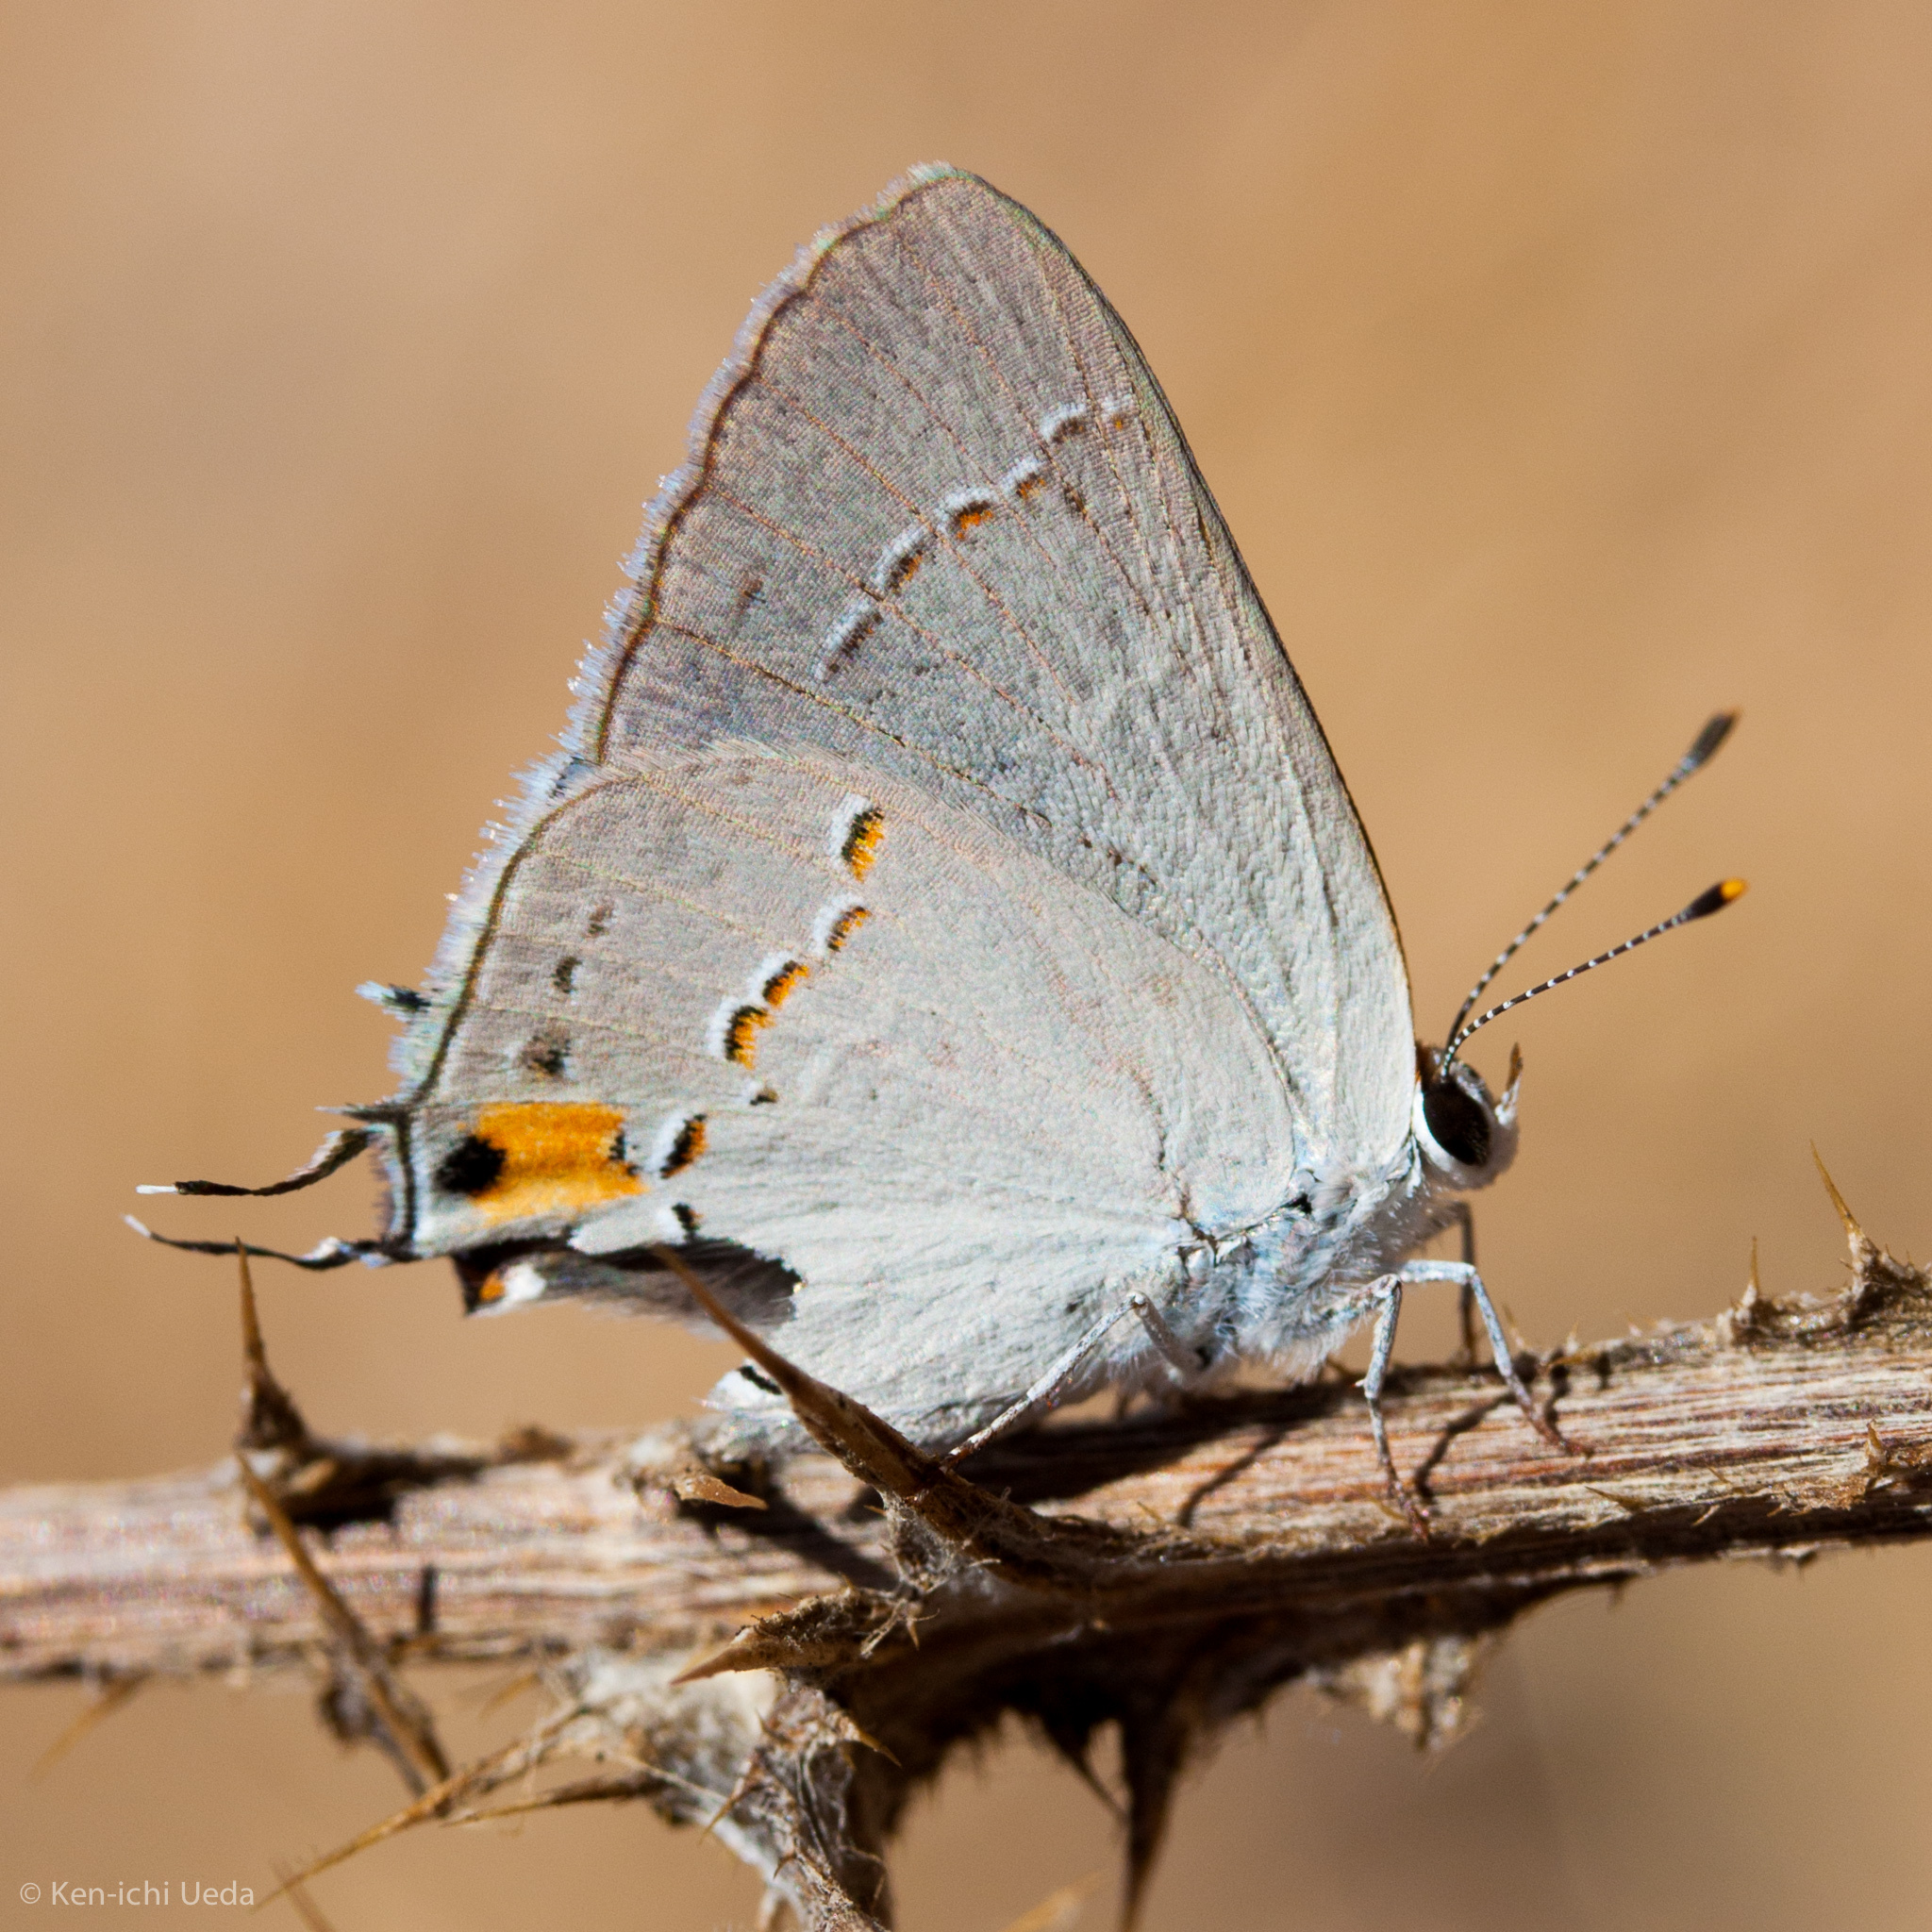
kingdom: Animalia
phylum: Arthropoda
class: Insecta
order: Lepidoptera
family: Lycaenidae
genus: Strymon
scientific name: Strymon melinus
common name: Gray hairstreak
